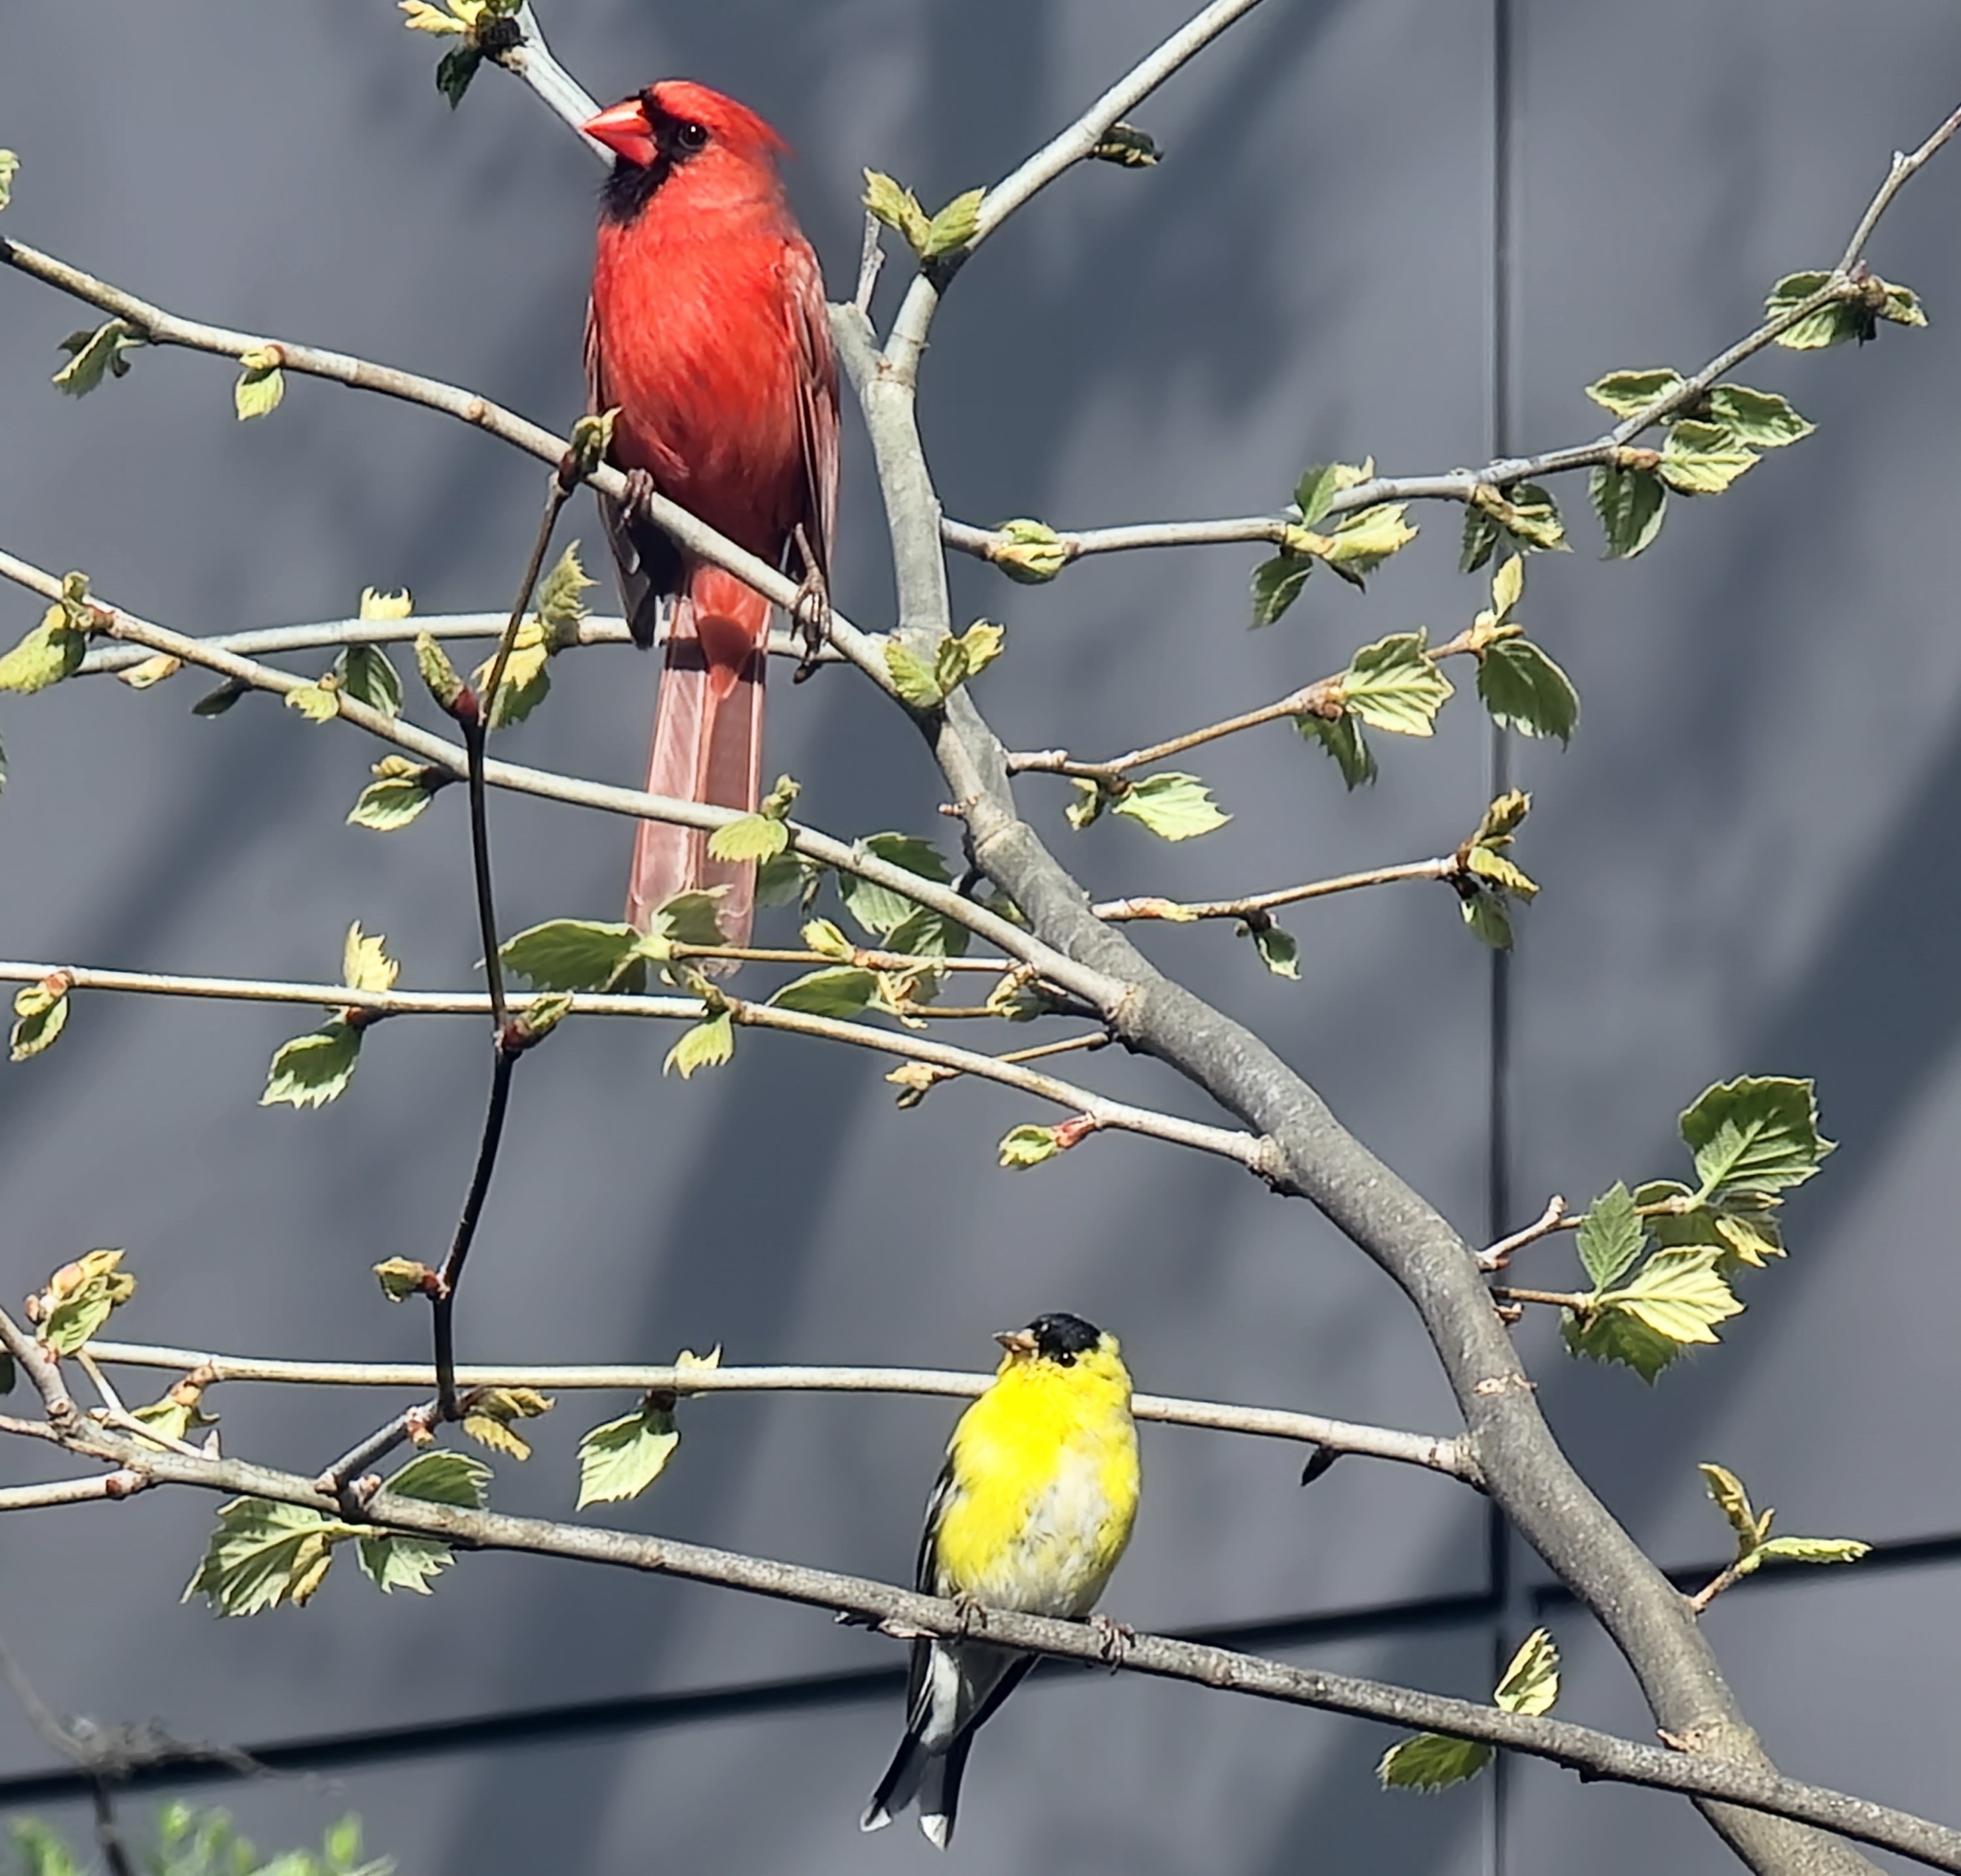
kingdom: Animalia
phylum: Chordata
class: Aves
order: Passeriformes
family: Cardinalidae
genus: Cardinalis
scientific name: Cardinalis cardinalis
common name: Northern cardinal
